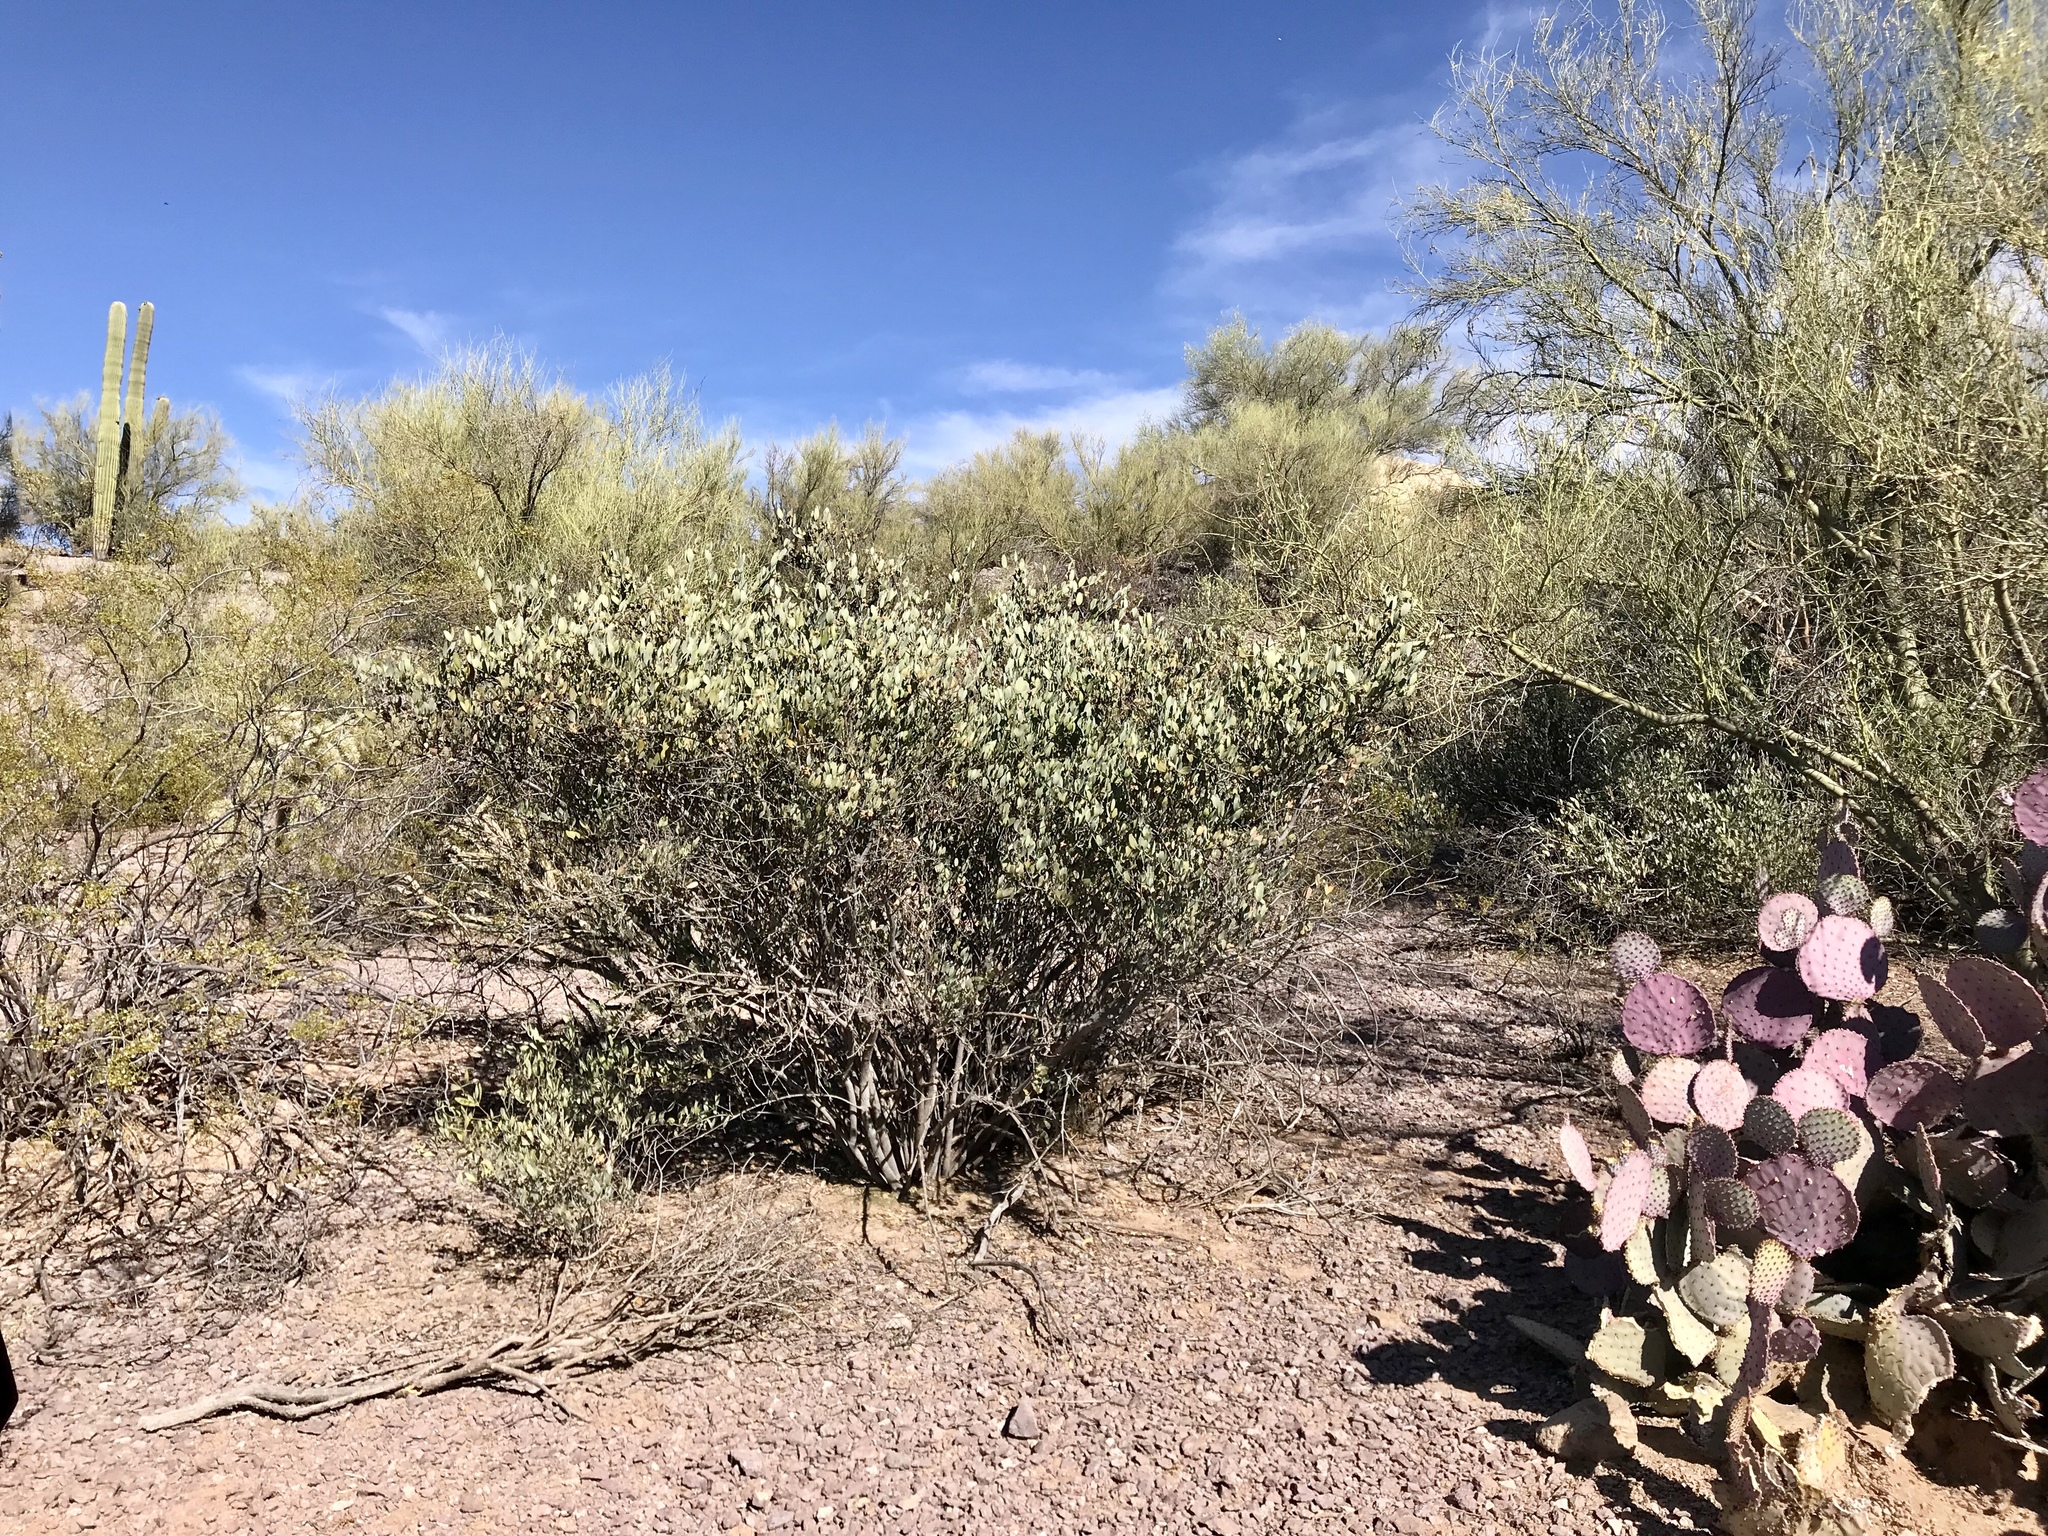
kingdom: Plantae
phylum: Tracheophyta
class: Magnoliopsida
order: Caryophyllales
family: Simmondsiaceae
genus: Simmondsia
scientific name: Simmondsia chinensis
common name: Jojoba
